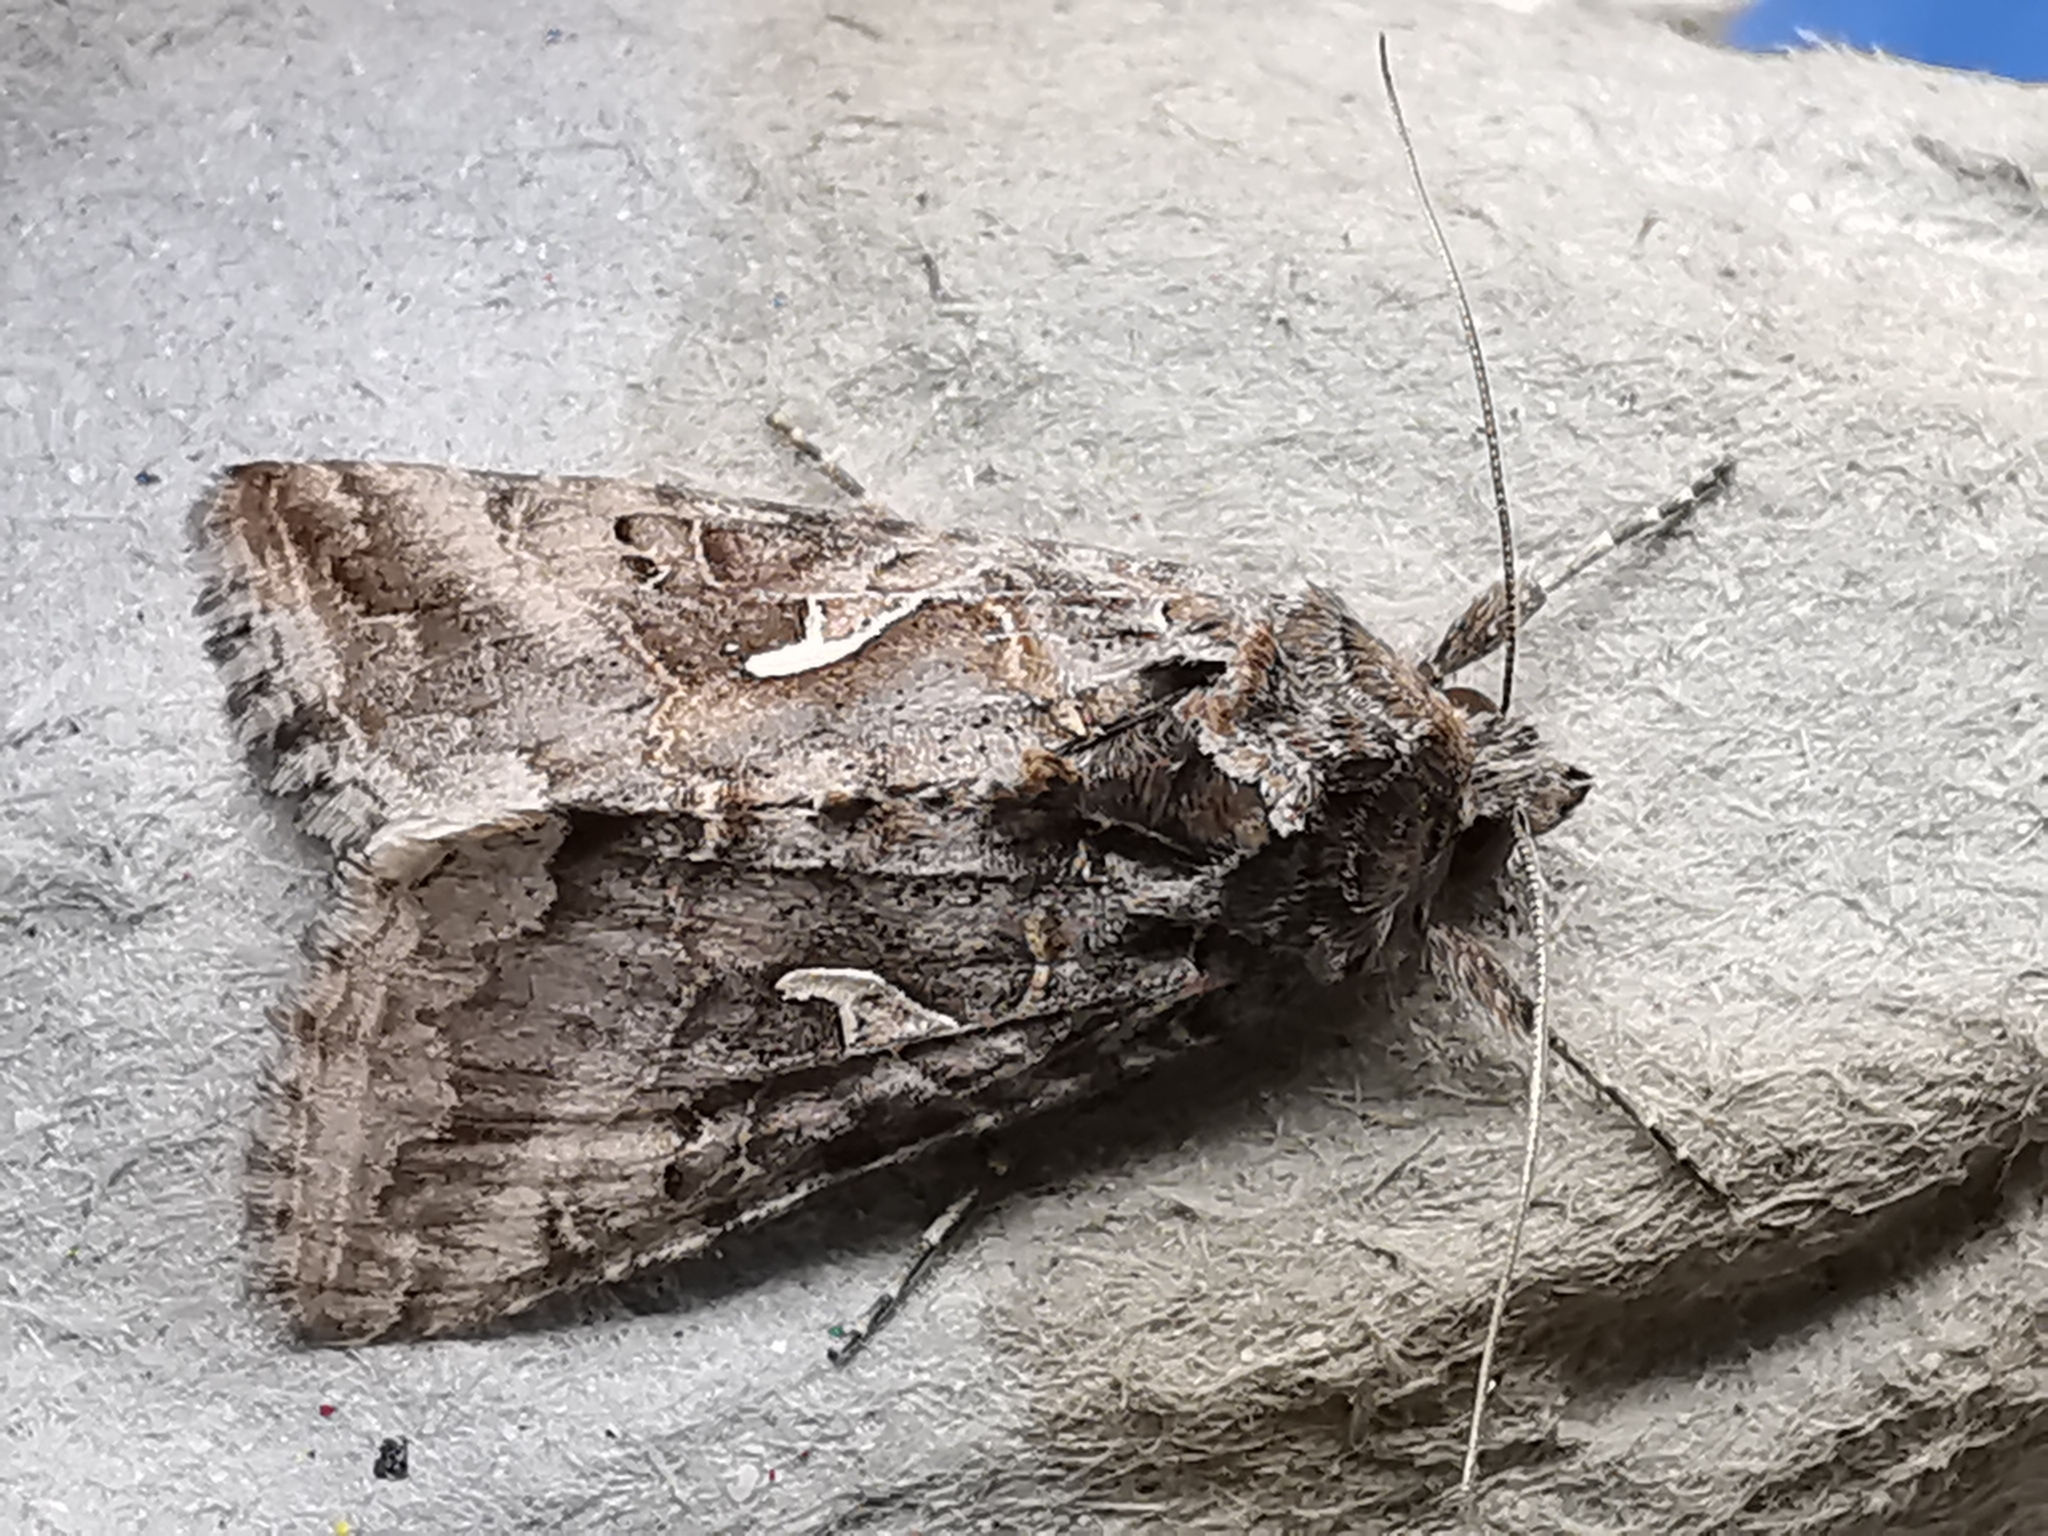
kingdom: Animalia
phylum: Arthropoda
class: Insecta
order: Lepidoptera
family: Noctuidae
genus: Autographa
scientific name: Autographa gamma
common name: Silver y
